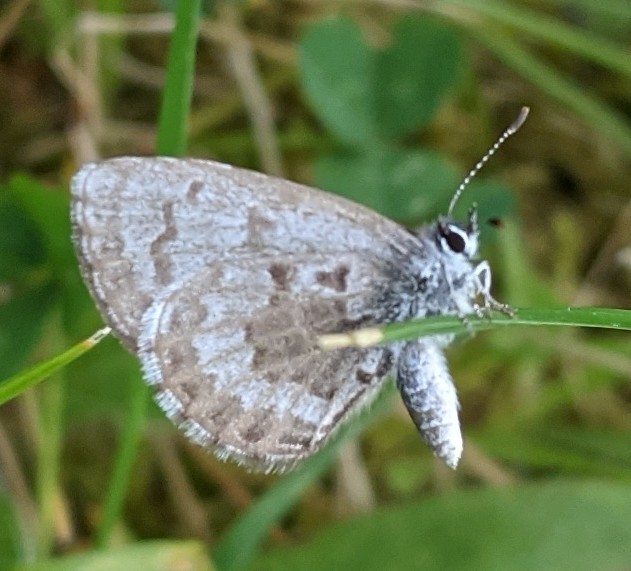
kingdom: Animalia
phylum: Arthropoda
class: Insecta
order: Lepidoptera
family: Lycaenidae
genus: Celastrina
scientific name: Celastrina lucia
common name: Lucia azure
